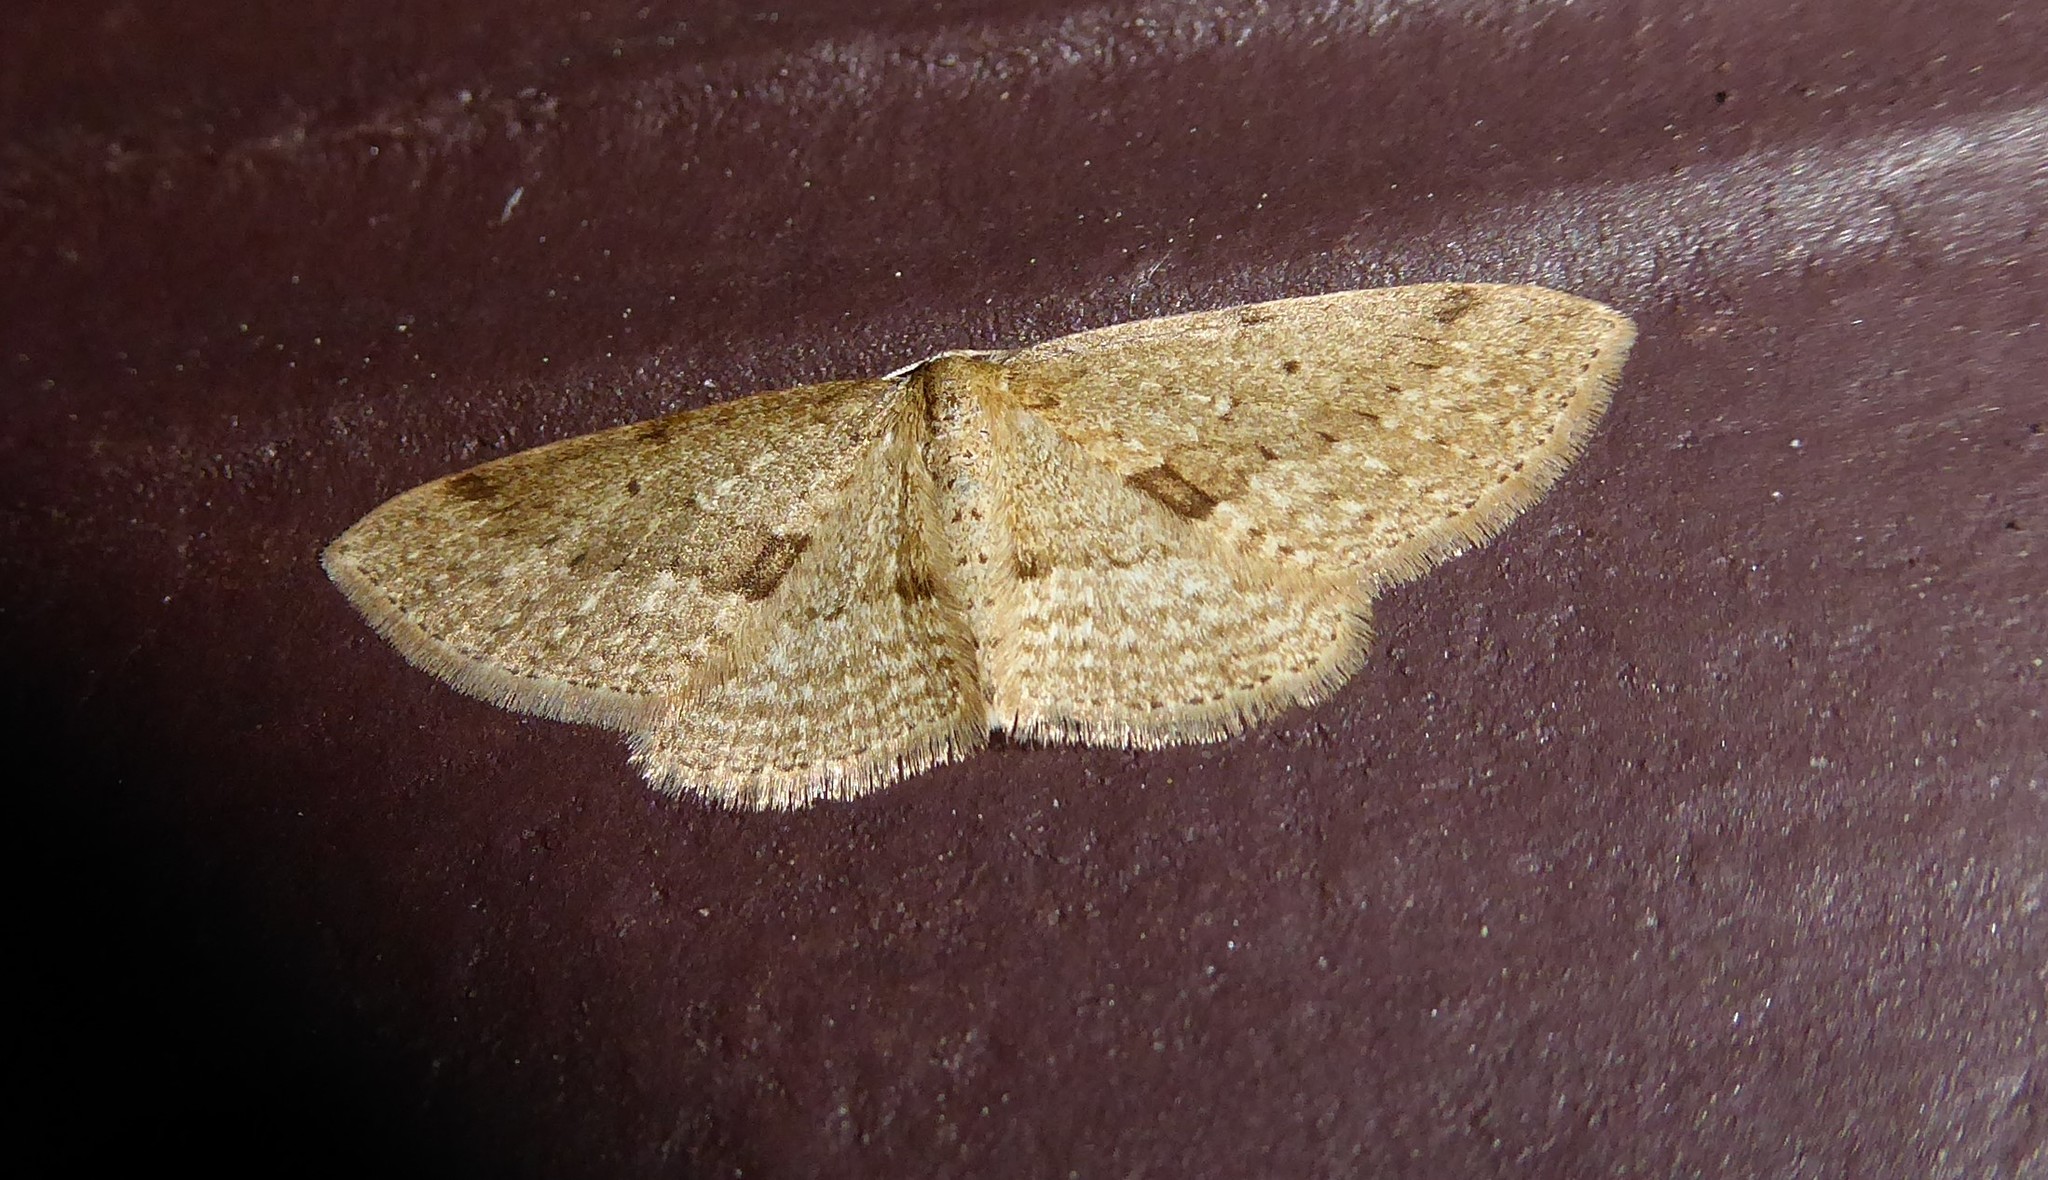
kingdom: Animalia
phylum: Arthropoda
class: Insecta
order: Lepidoptera
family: Geometridae
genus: Poecilasthena
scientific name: Poecilasthena schistaria
